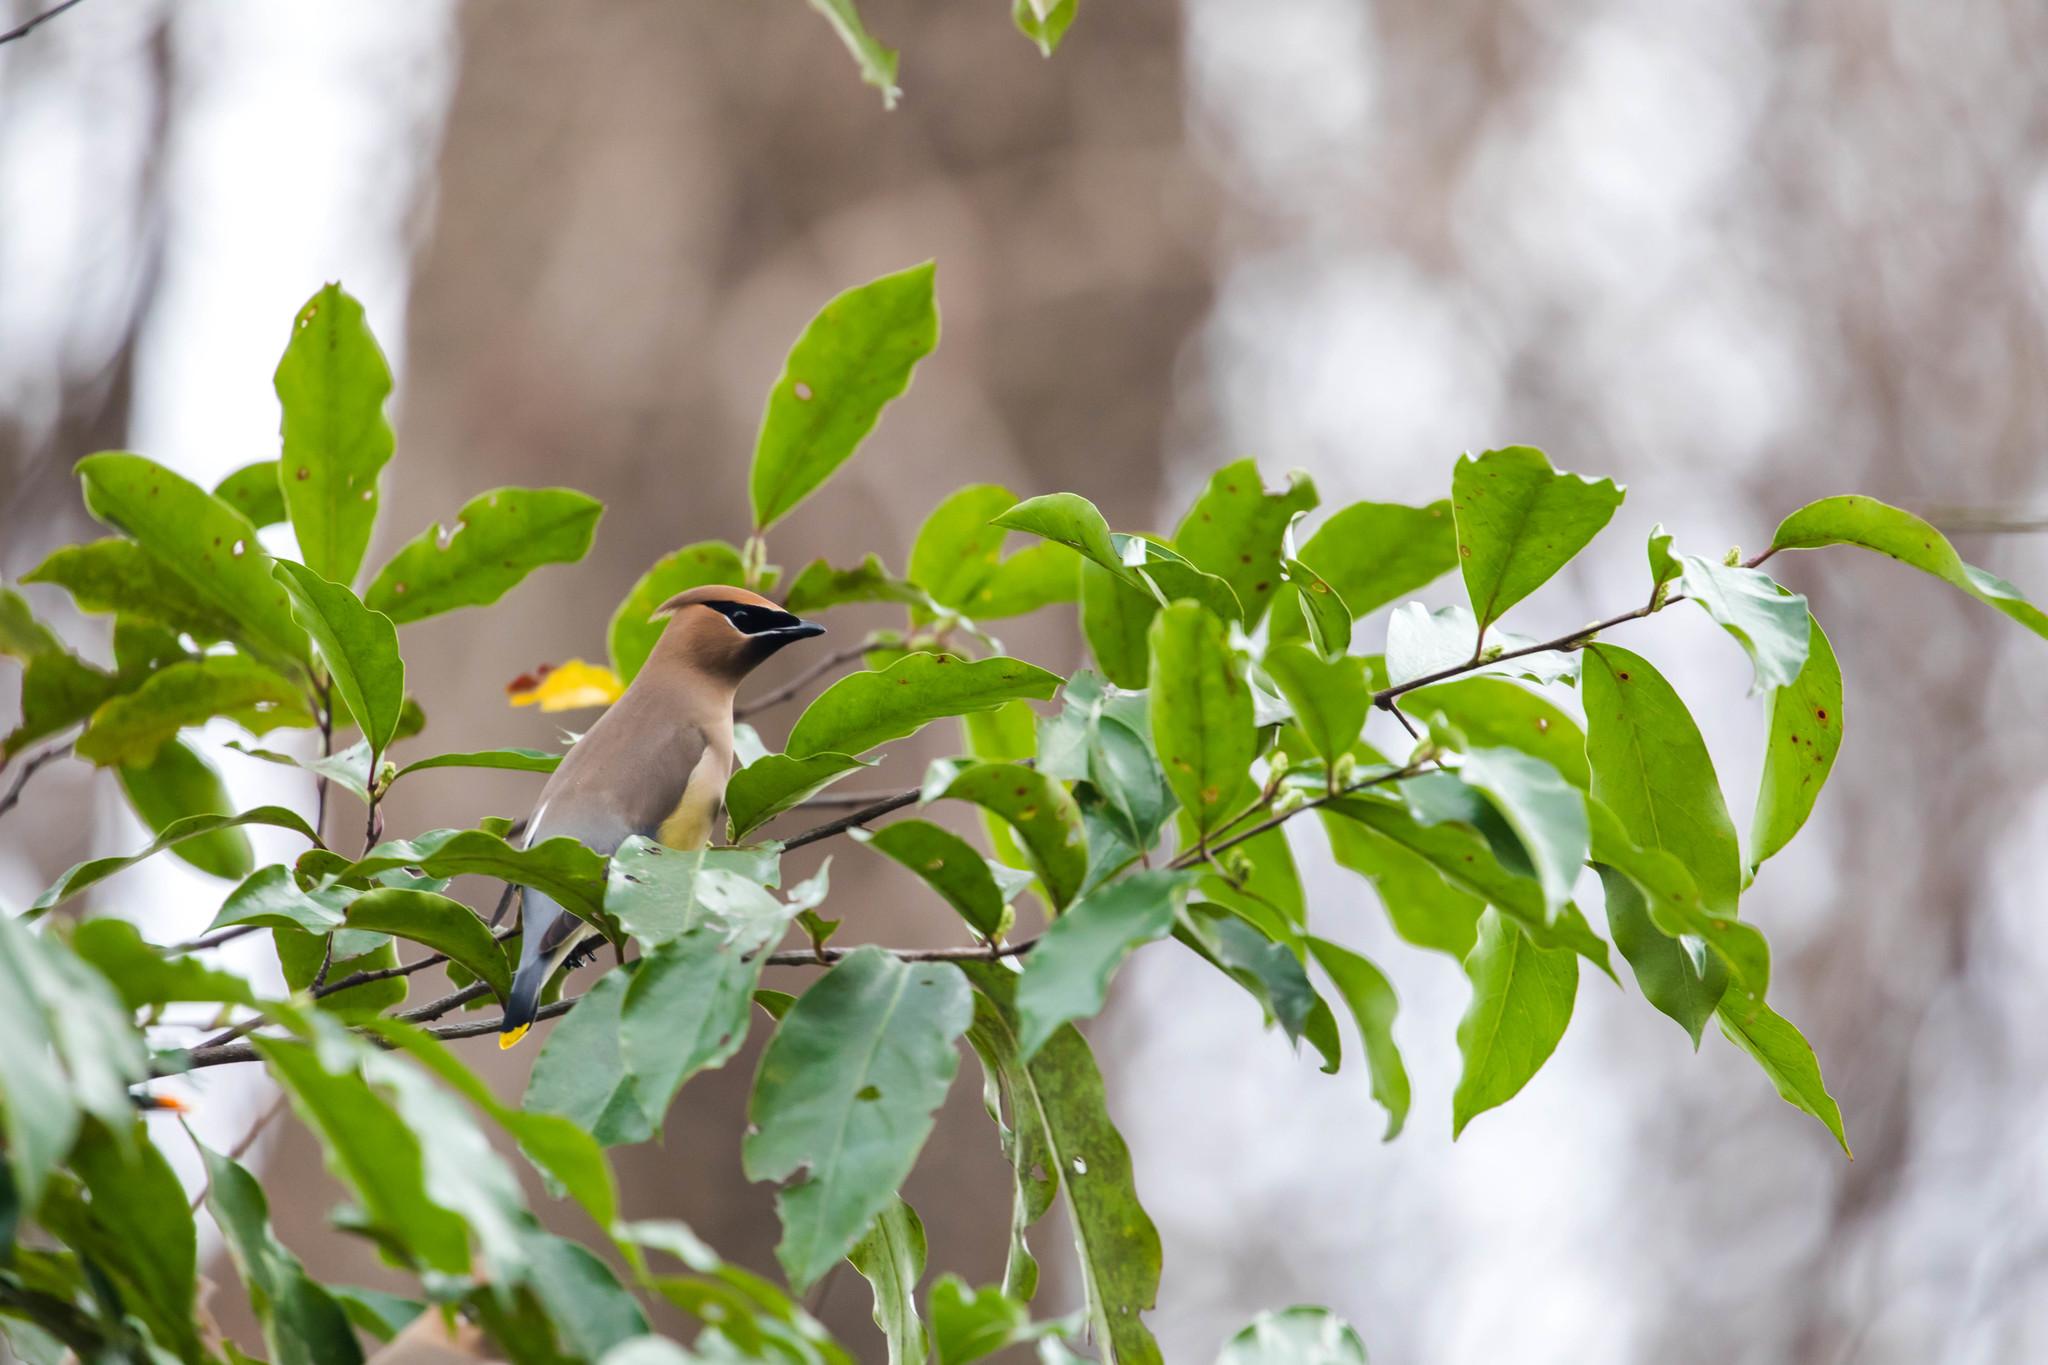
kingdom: Animalia
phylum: Chordata
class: Aves
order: Passeriformes
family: Bombycillidae
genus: Bombycilla
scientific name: Bombycilla cedrorum
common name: Cedar waxwing
